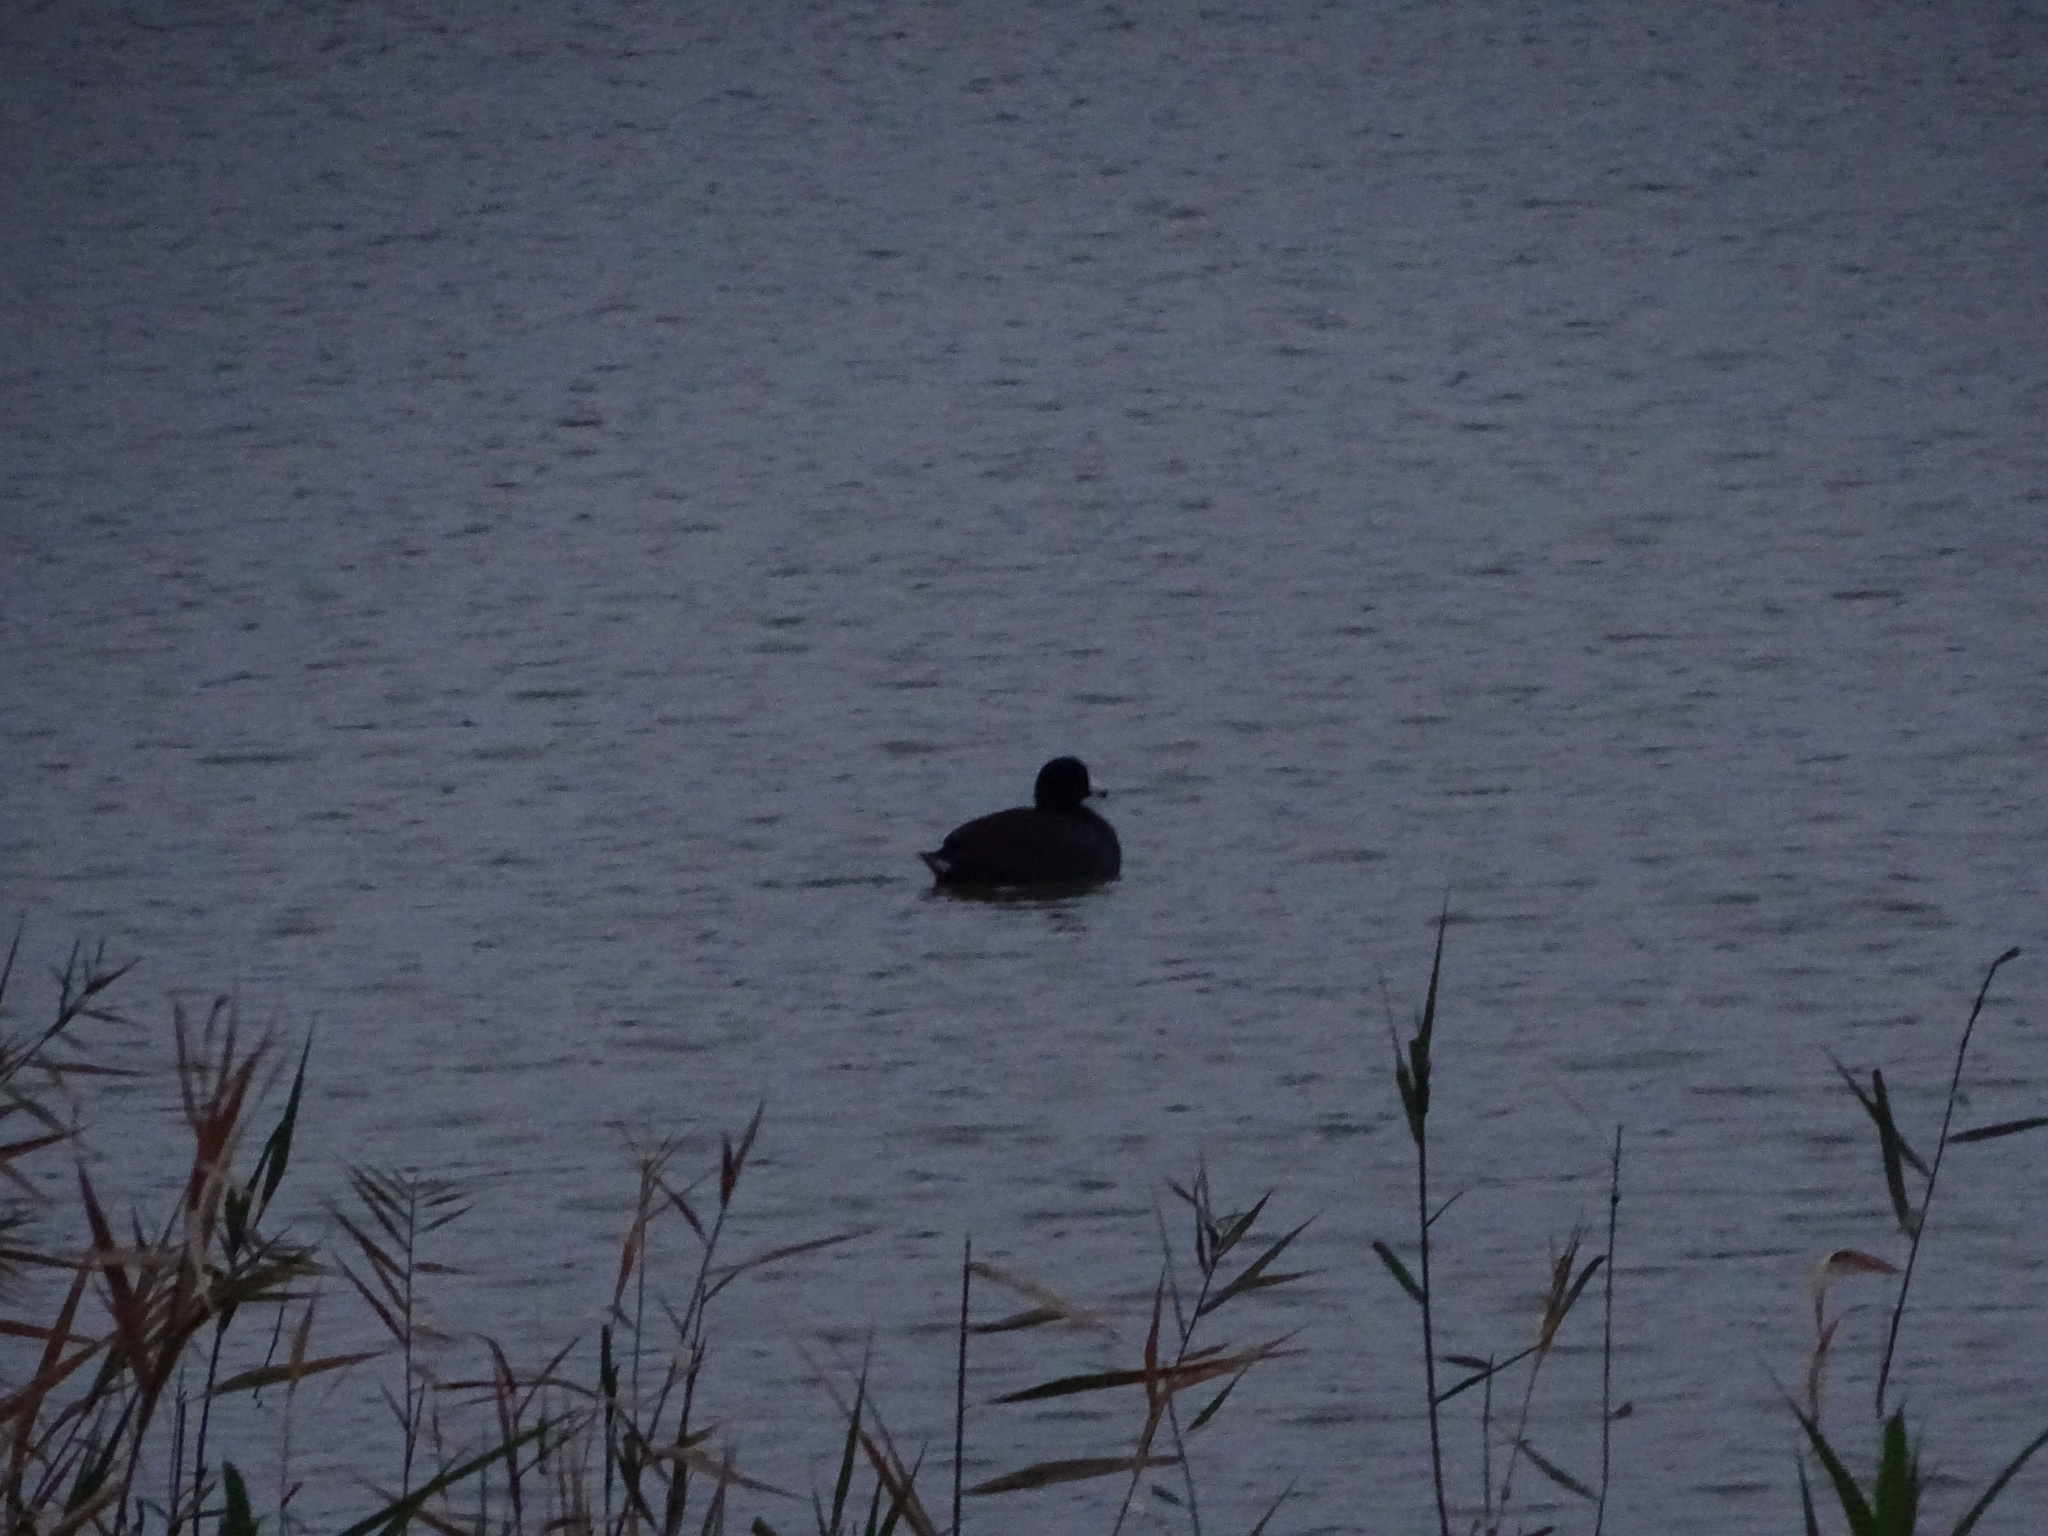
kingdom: Animalia
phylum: Chordata
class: Aves
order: Gruiformes
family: Rallidae
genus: Fulica
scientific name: Fulica americana
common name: American coot
